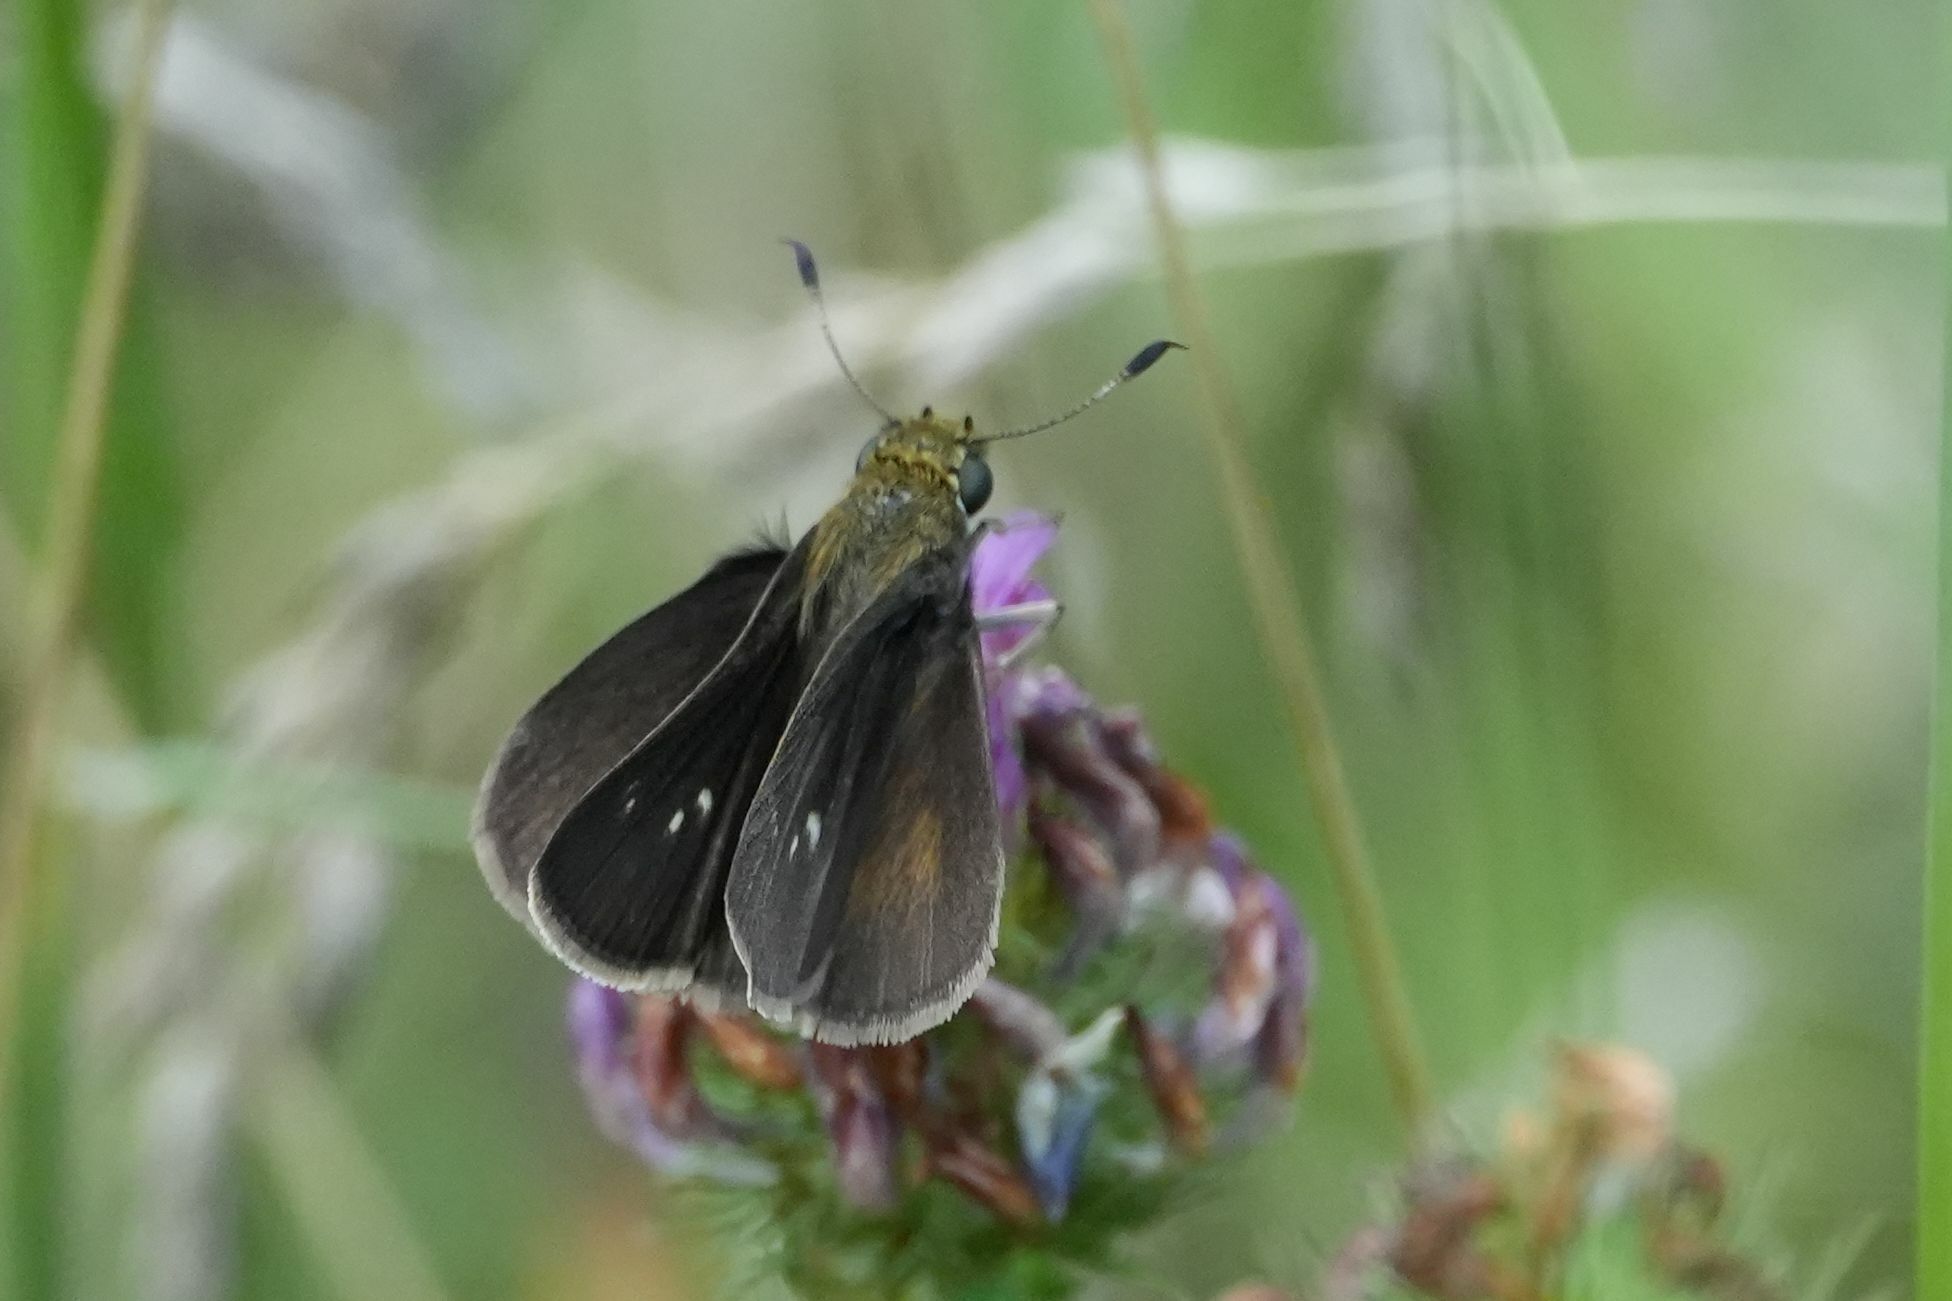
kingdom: Animalia
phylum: Arthropoda
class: Insecta
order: Lepidoptera
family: Hesperiidae
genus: Euphyes
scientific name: Euphyes vestris
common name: Dun skipper
